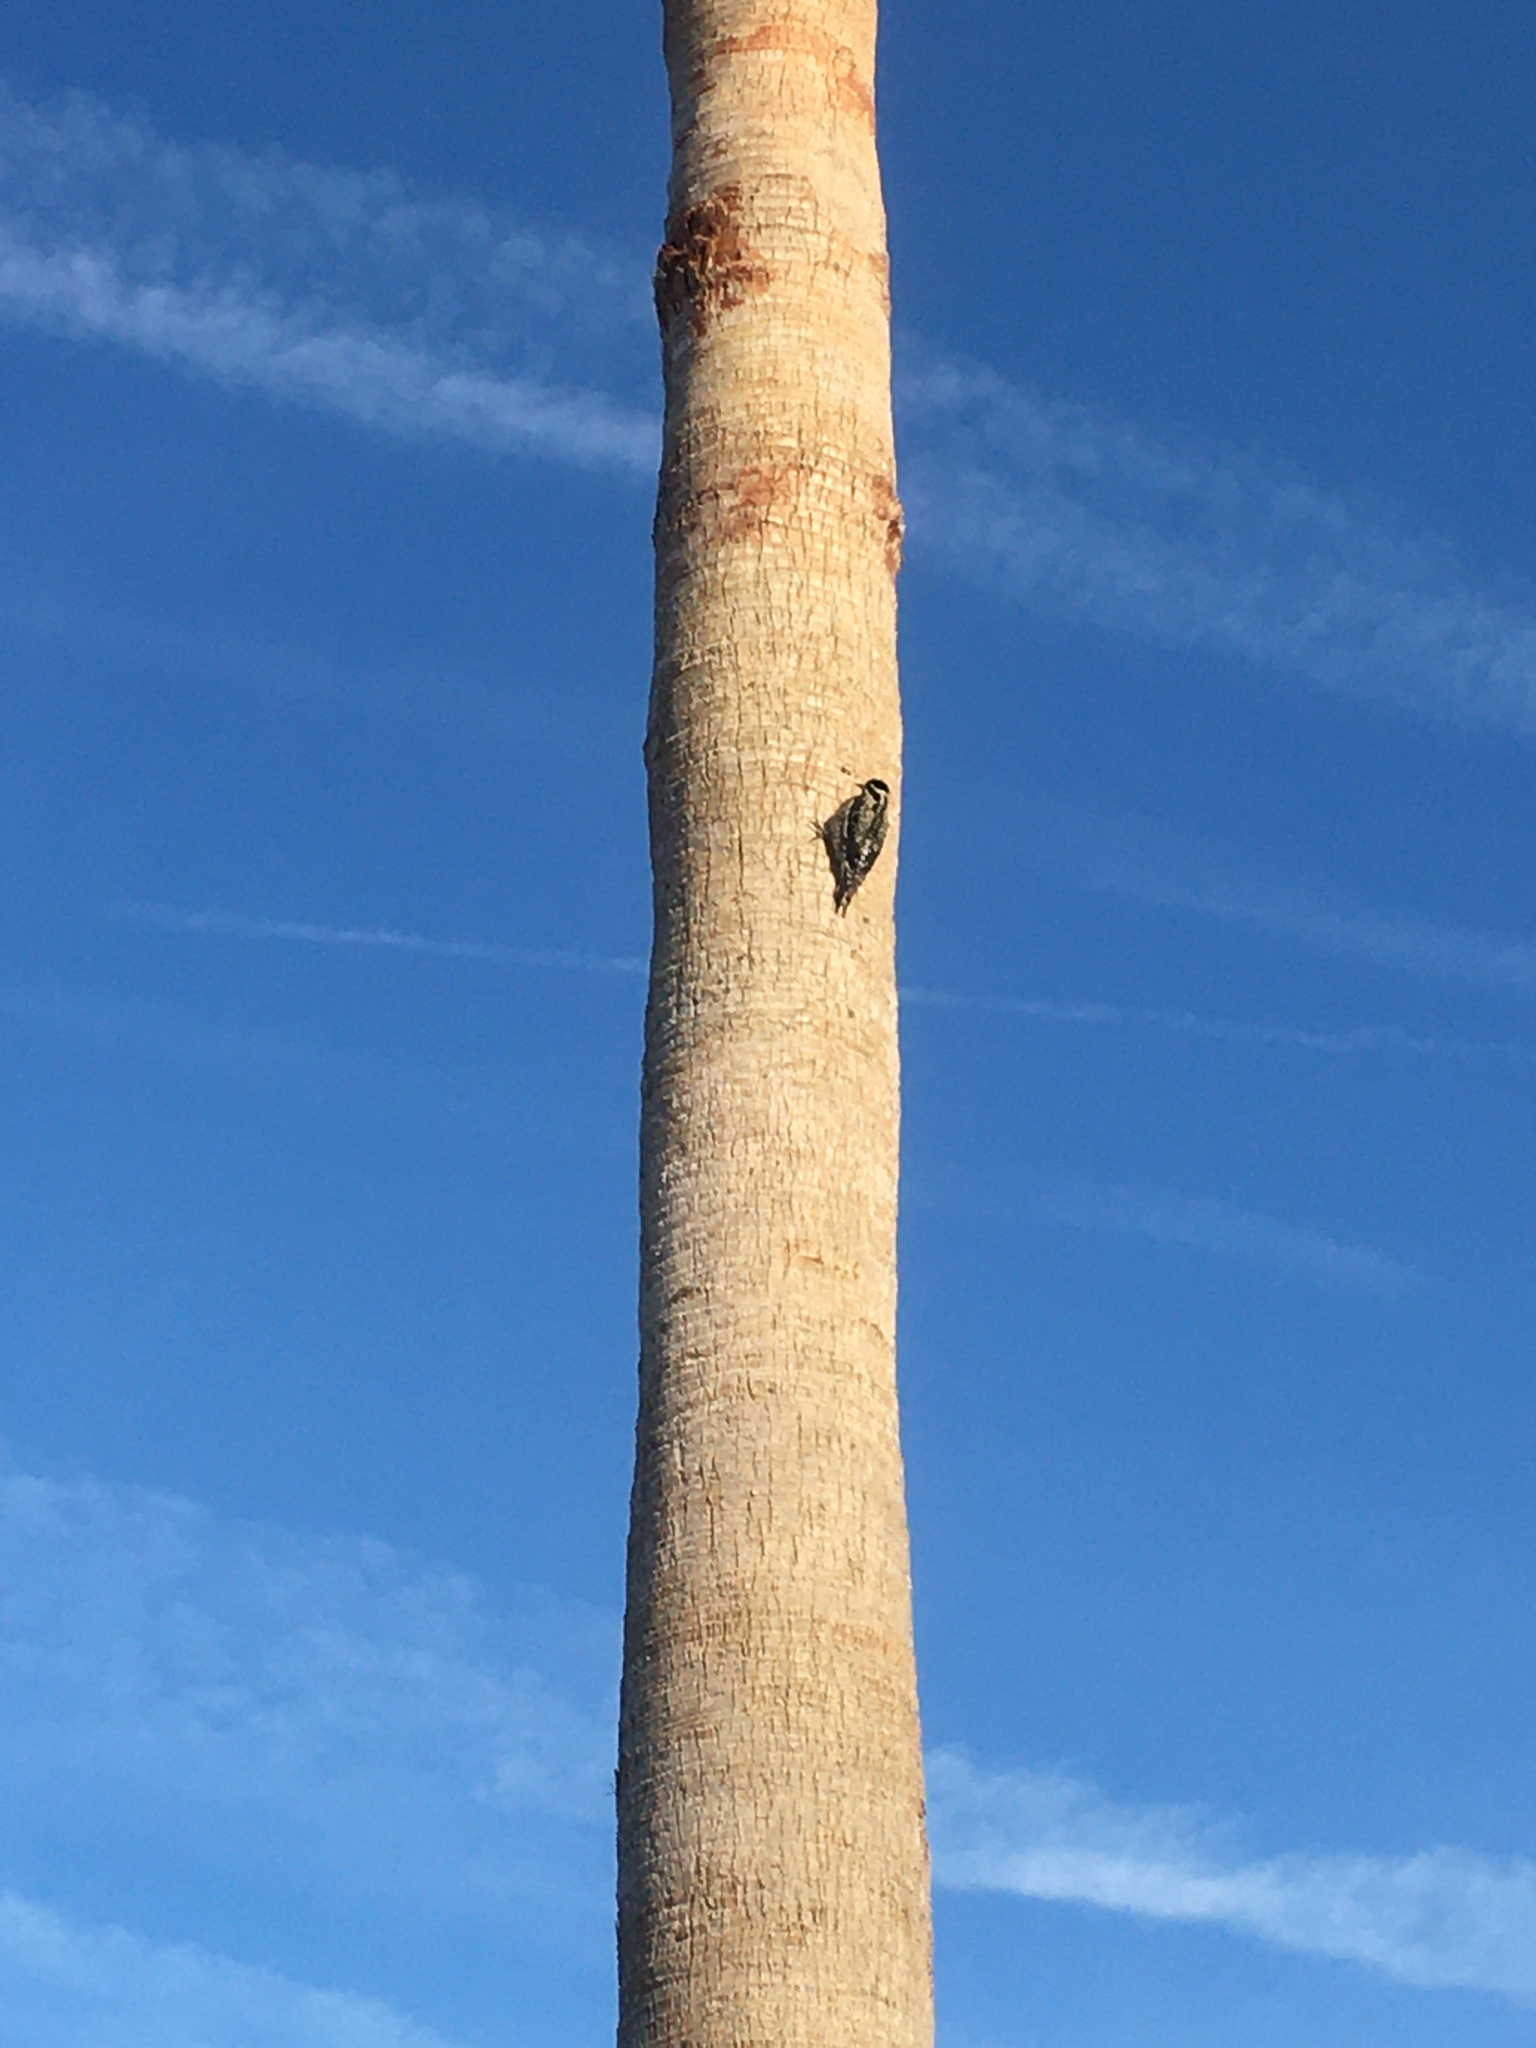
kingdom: Animalia
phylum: Chordata
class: Aves
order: Piciformes
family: Picidae
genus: Sphyrapicus
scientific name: Sphyrapicus varius
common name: Yellow-bellied sapsucker
